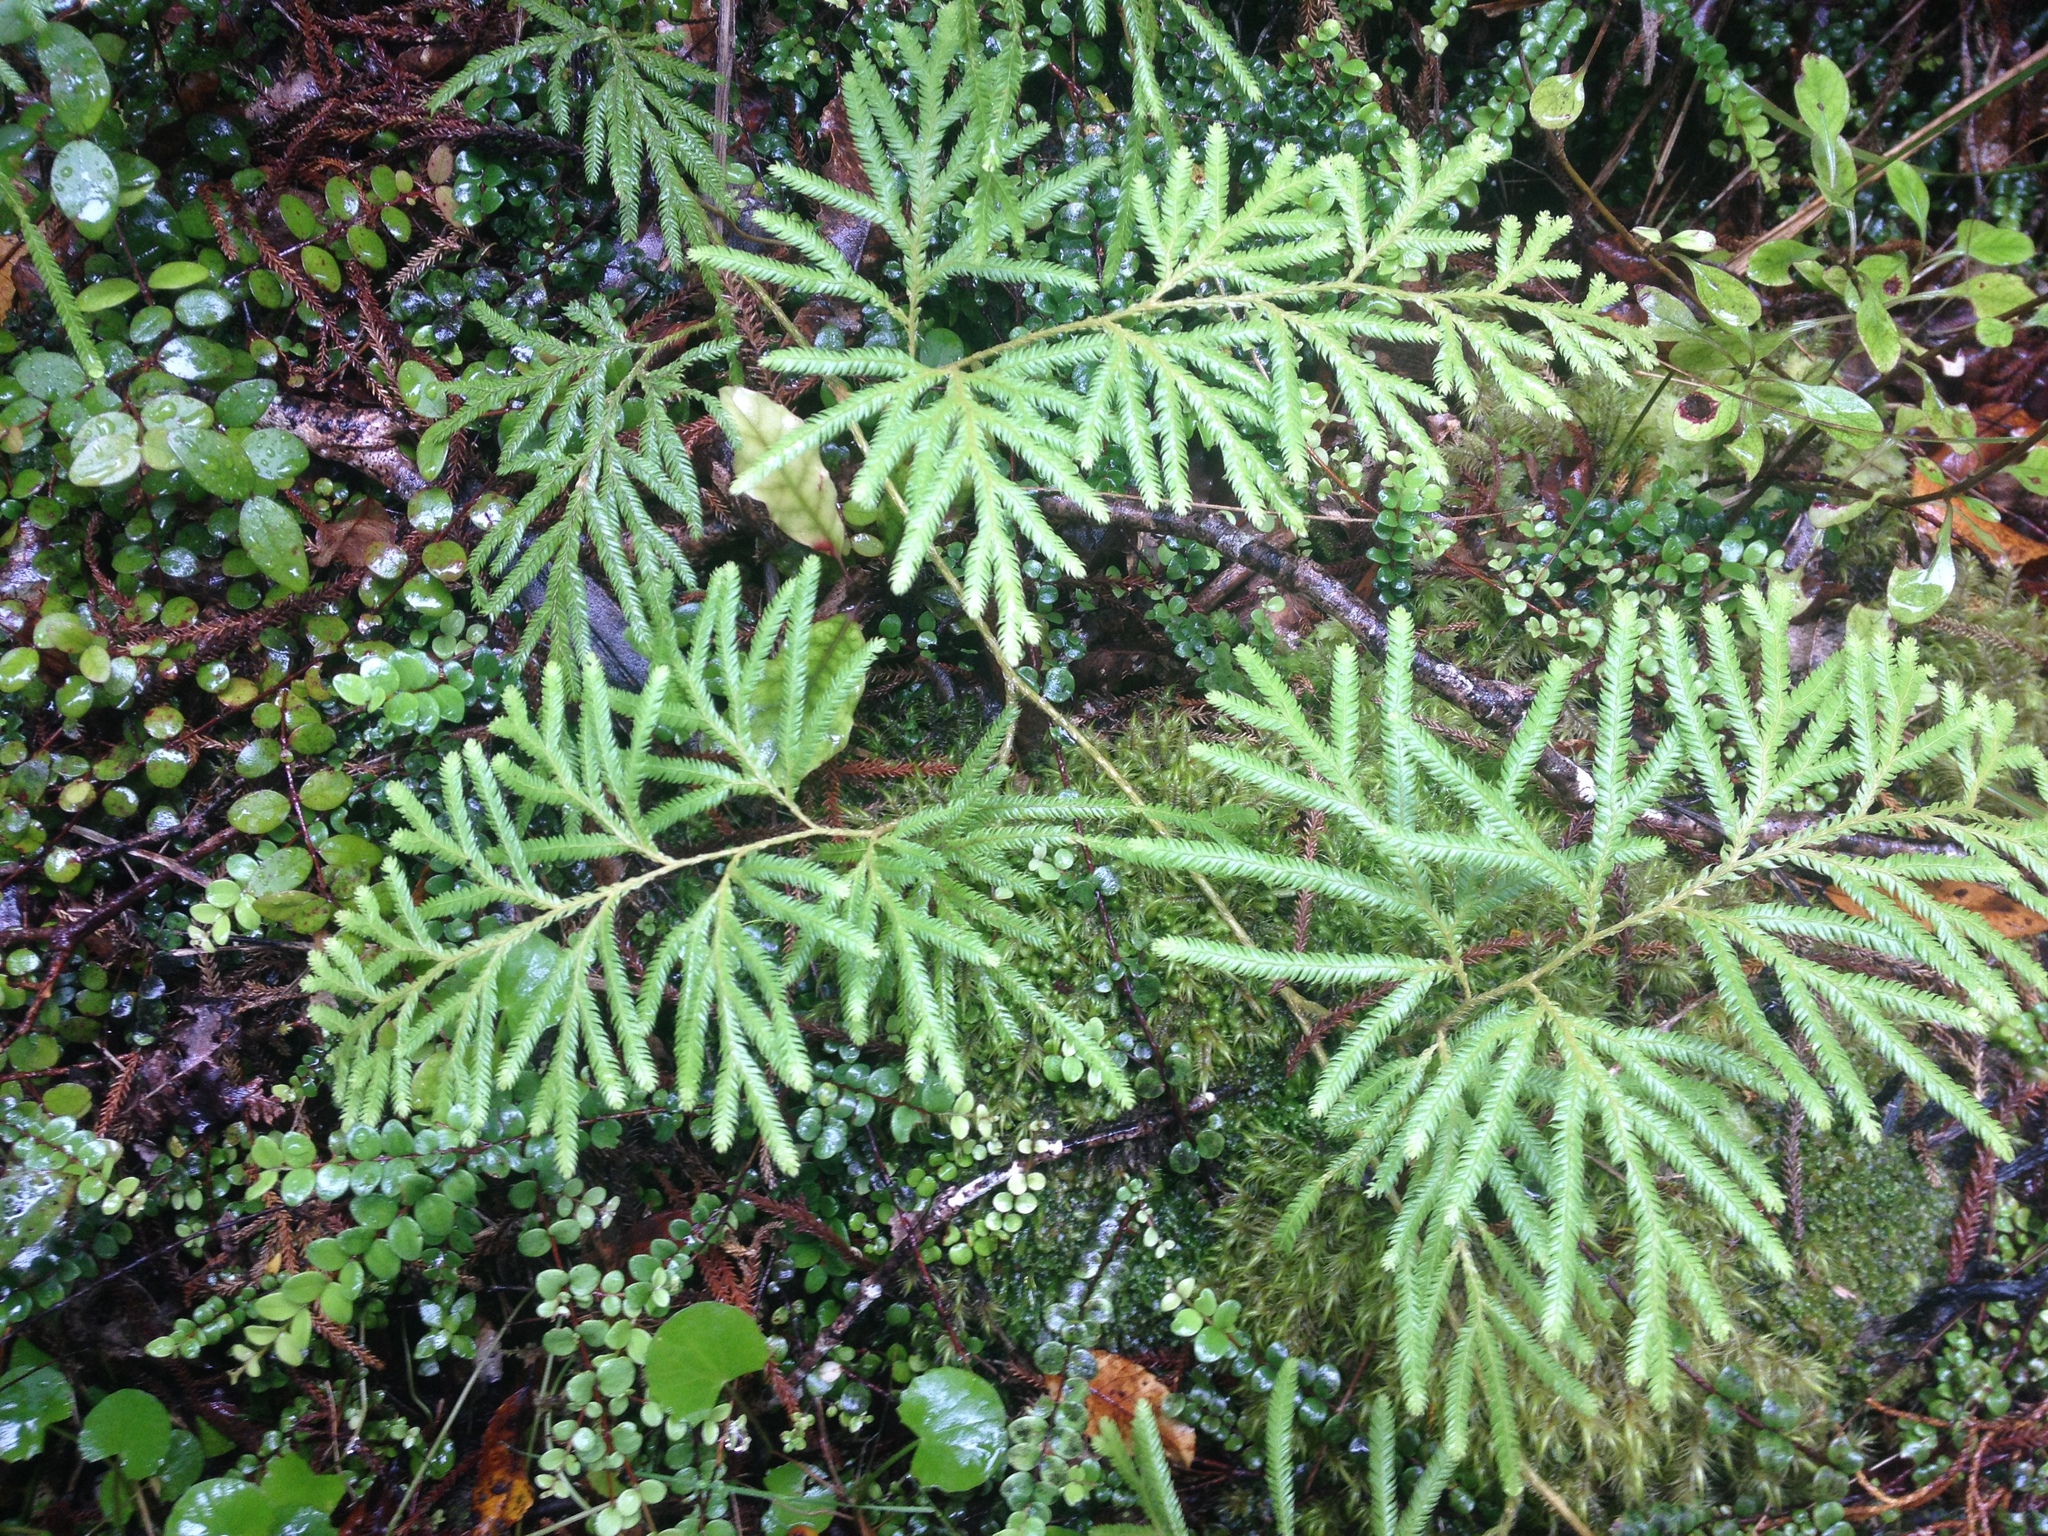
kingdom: Plantae
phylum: Tracheophyta
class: Lycopodiopsida
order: Lycopodiales
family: Lycopodiaceae
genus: Lycopodium
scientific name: Lycopodium volubile
